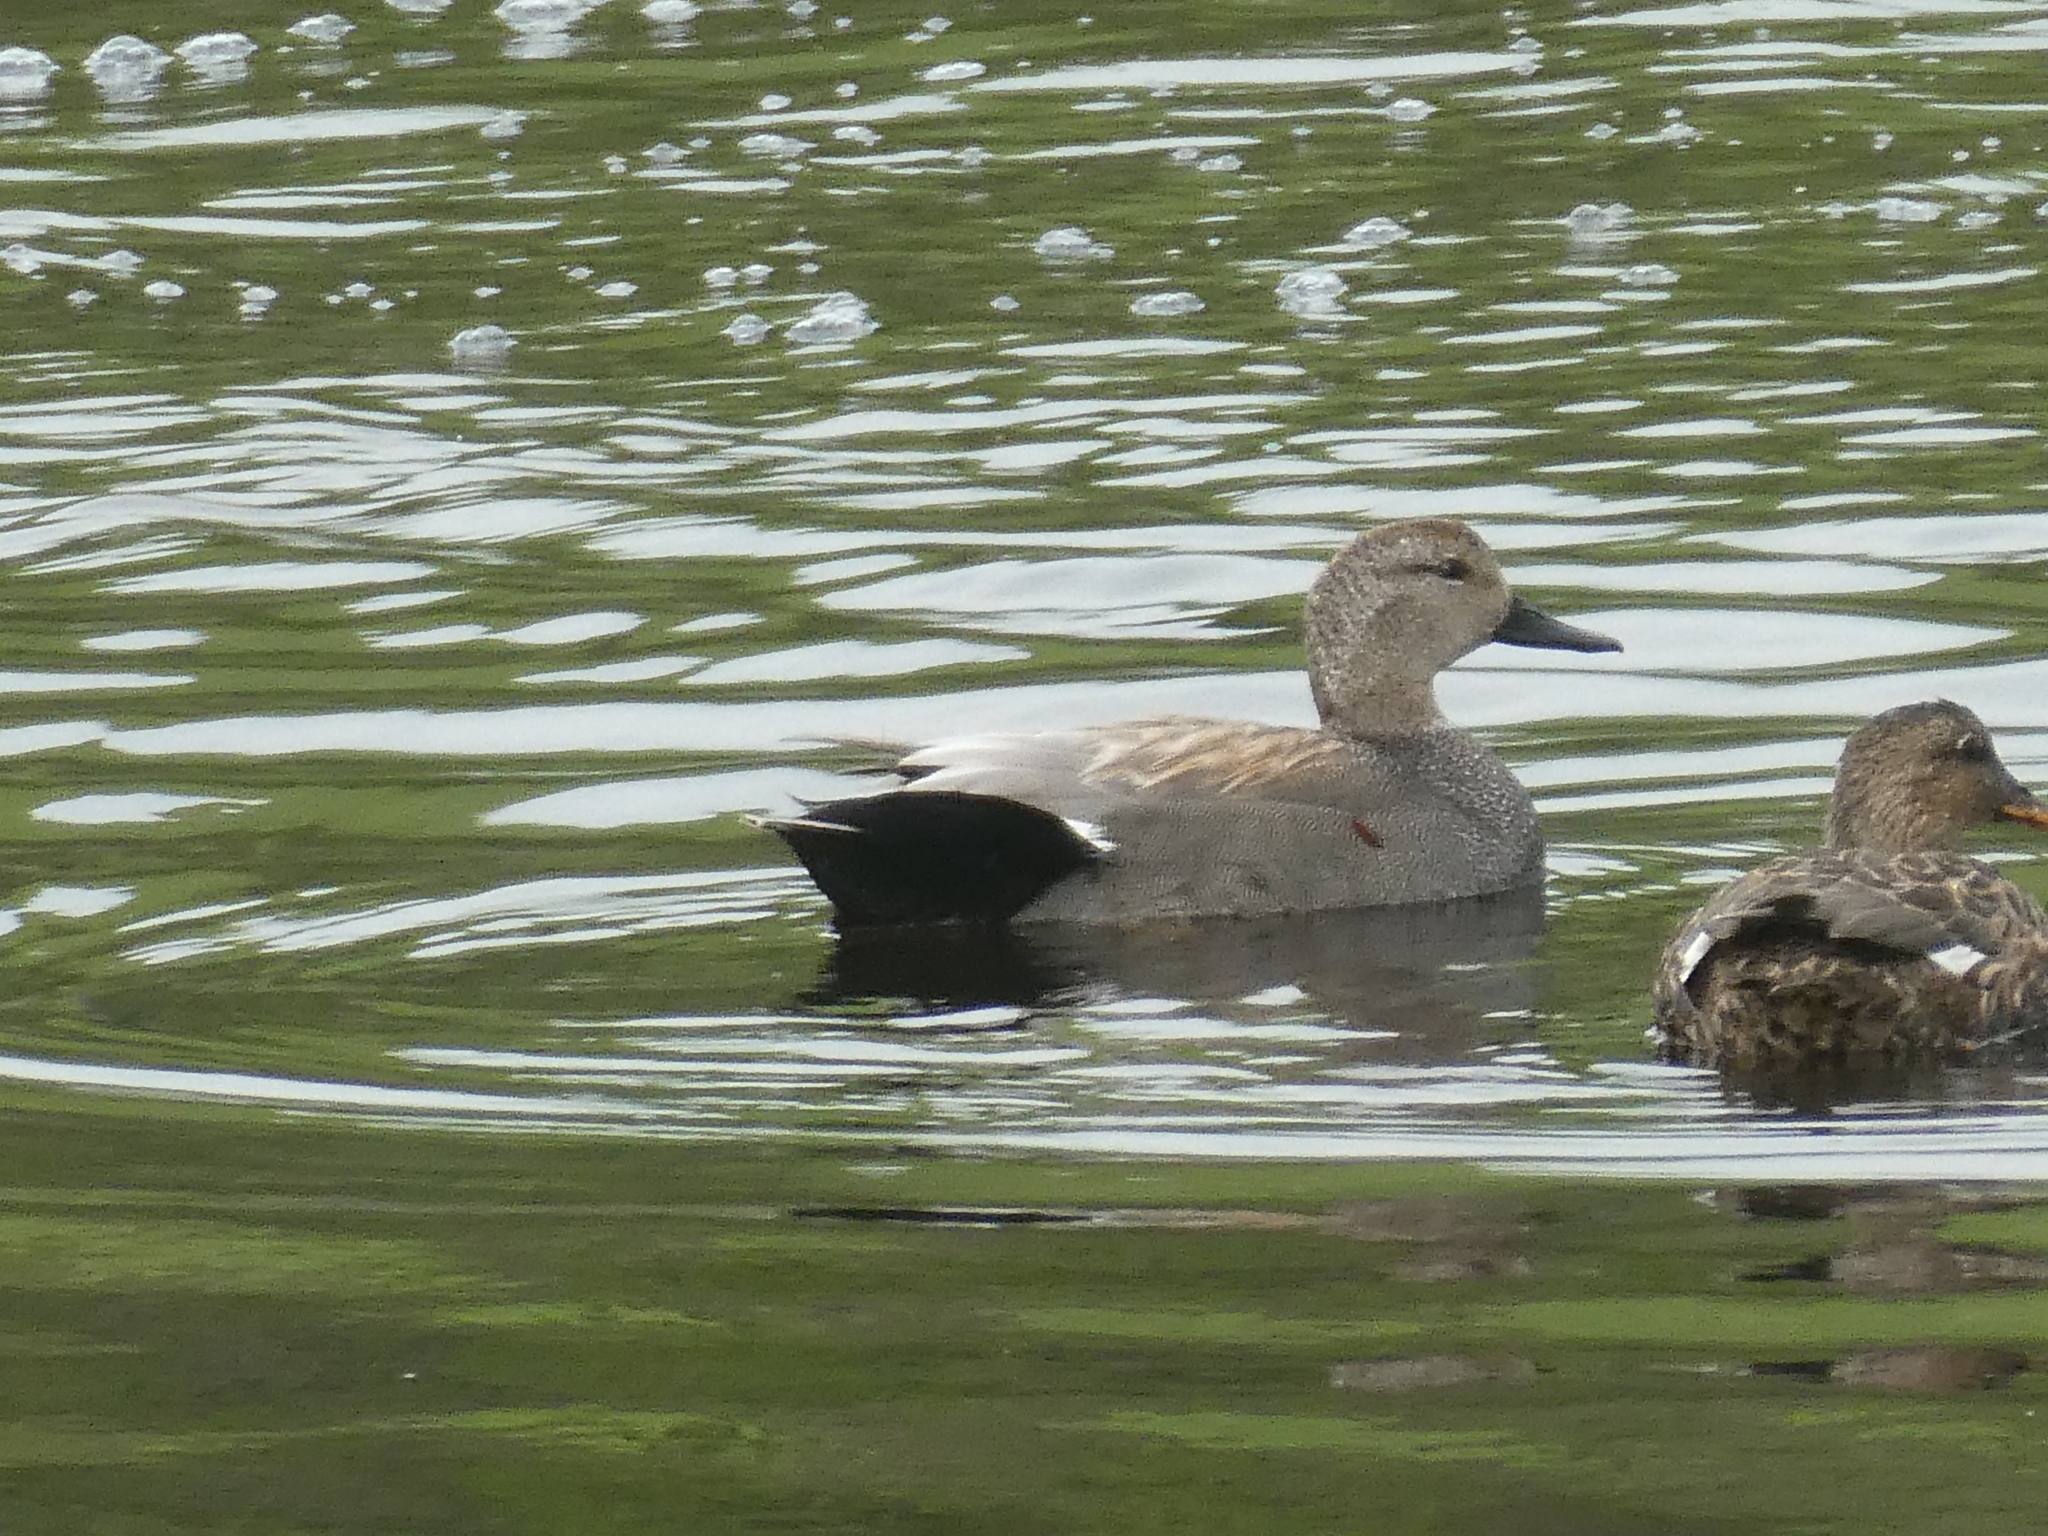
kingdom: Animalia
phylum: Chordata
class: Aves
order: Anseriformes
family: Anatidae
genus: Mareca
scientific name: Mareca strepera
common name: Gadwall
